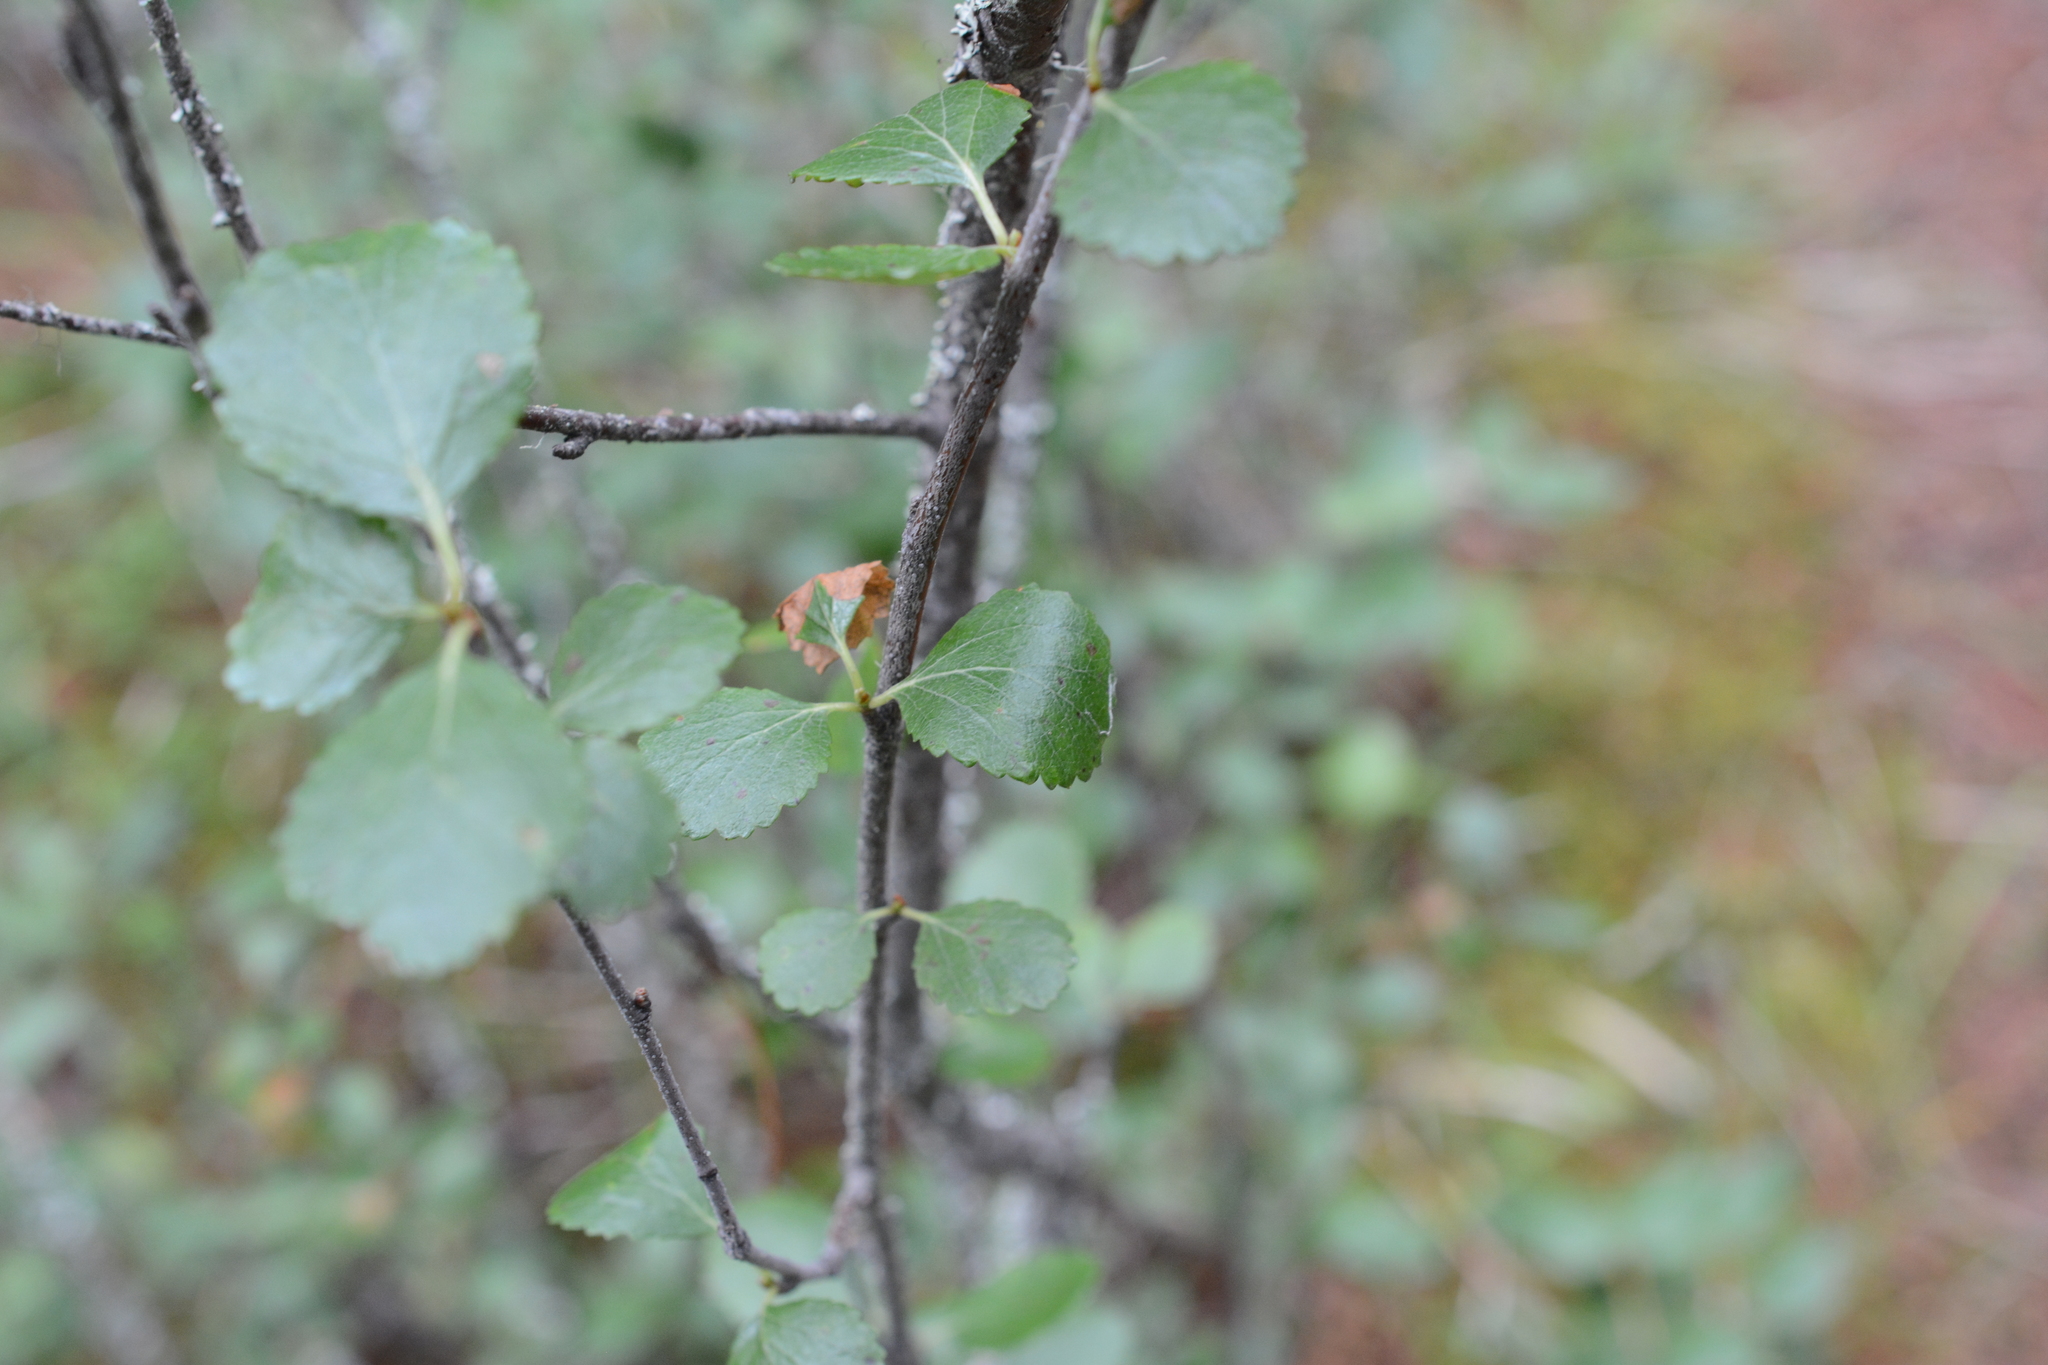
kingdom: Plantae
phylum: Tracheophyta
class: Magnoliopsida
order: Fagales
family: Betulaceae
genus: Betula
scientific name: Betula glandulosa
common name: Dwarf birch
